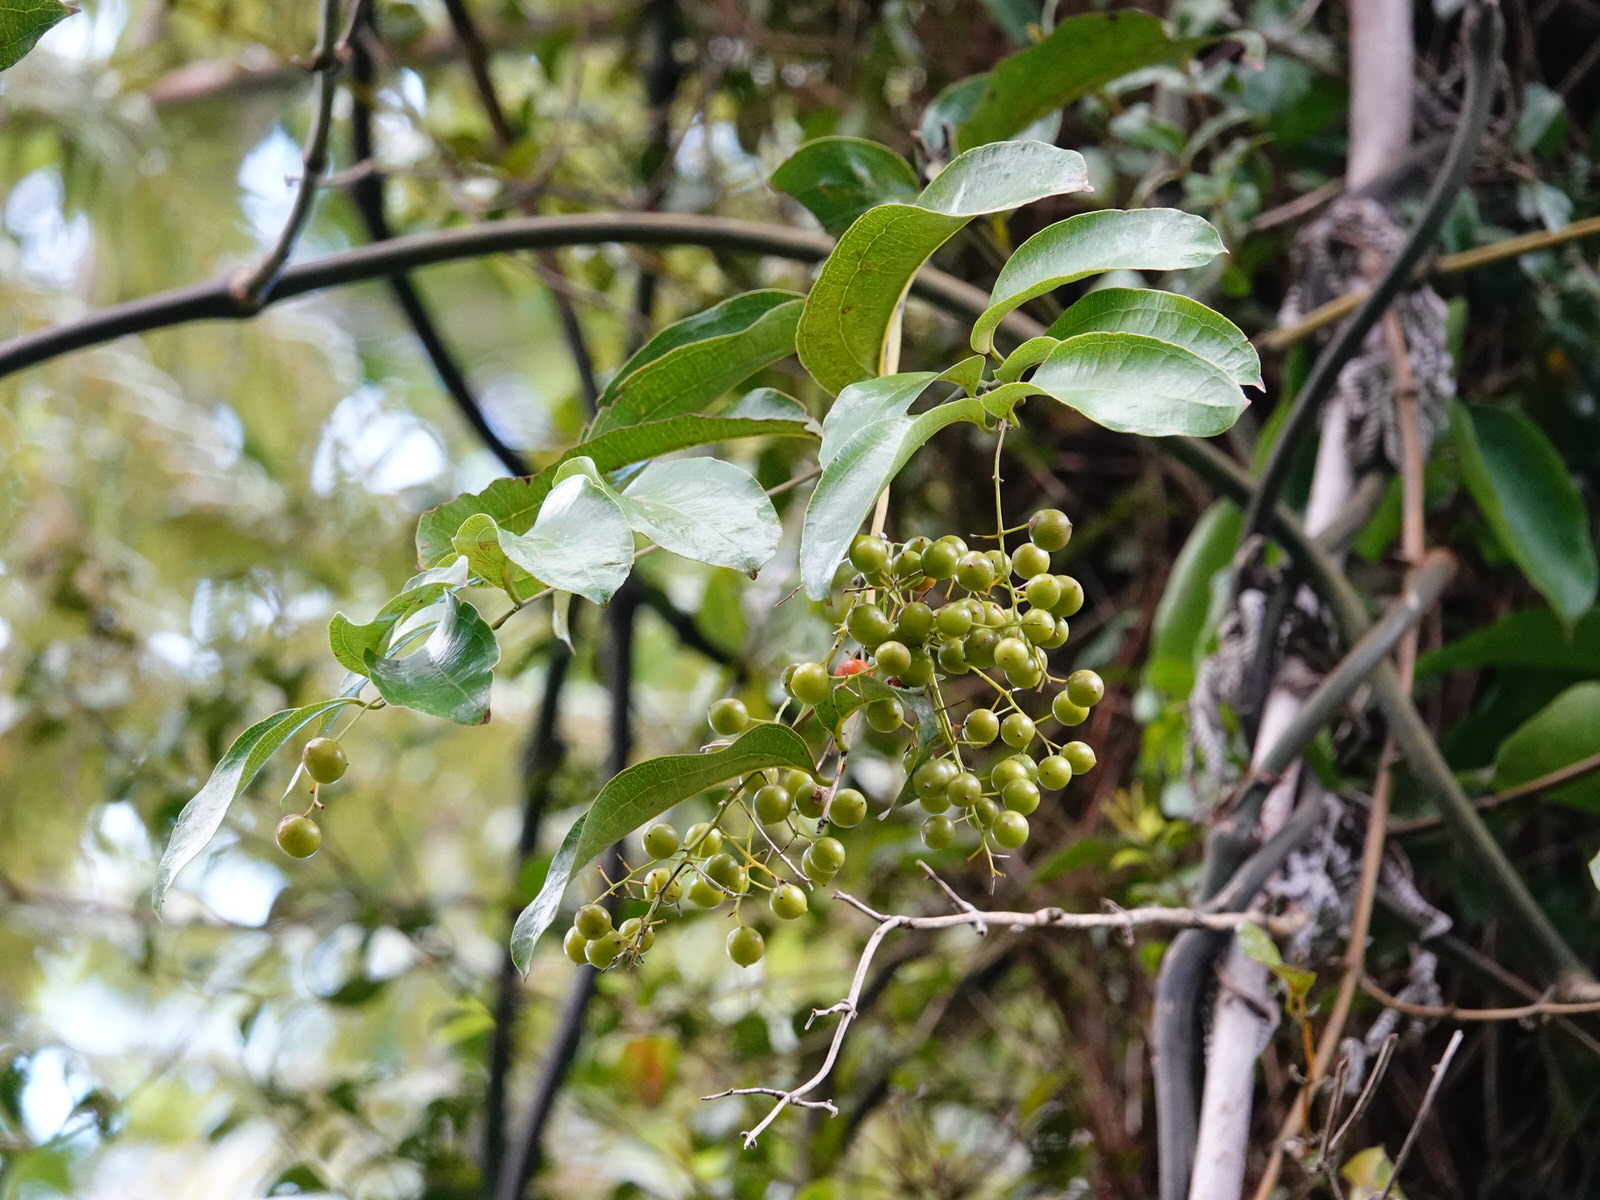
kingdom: Plantae
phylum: Tracheophyta
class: Liliopsida
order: Liliales
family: Ripogonaceae
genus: Ripogonum
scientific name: Ripogonum scandens
